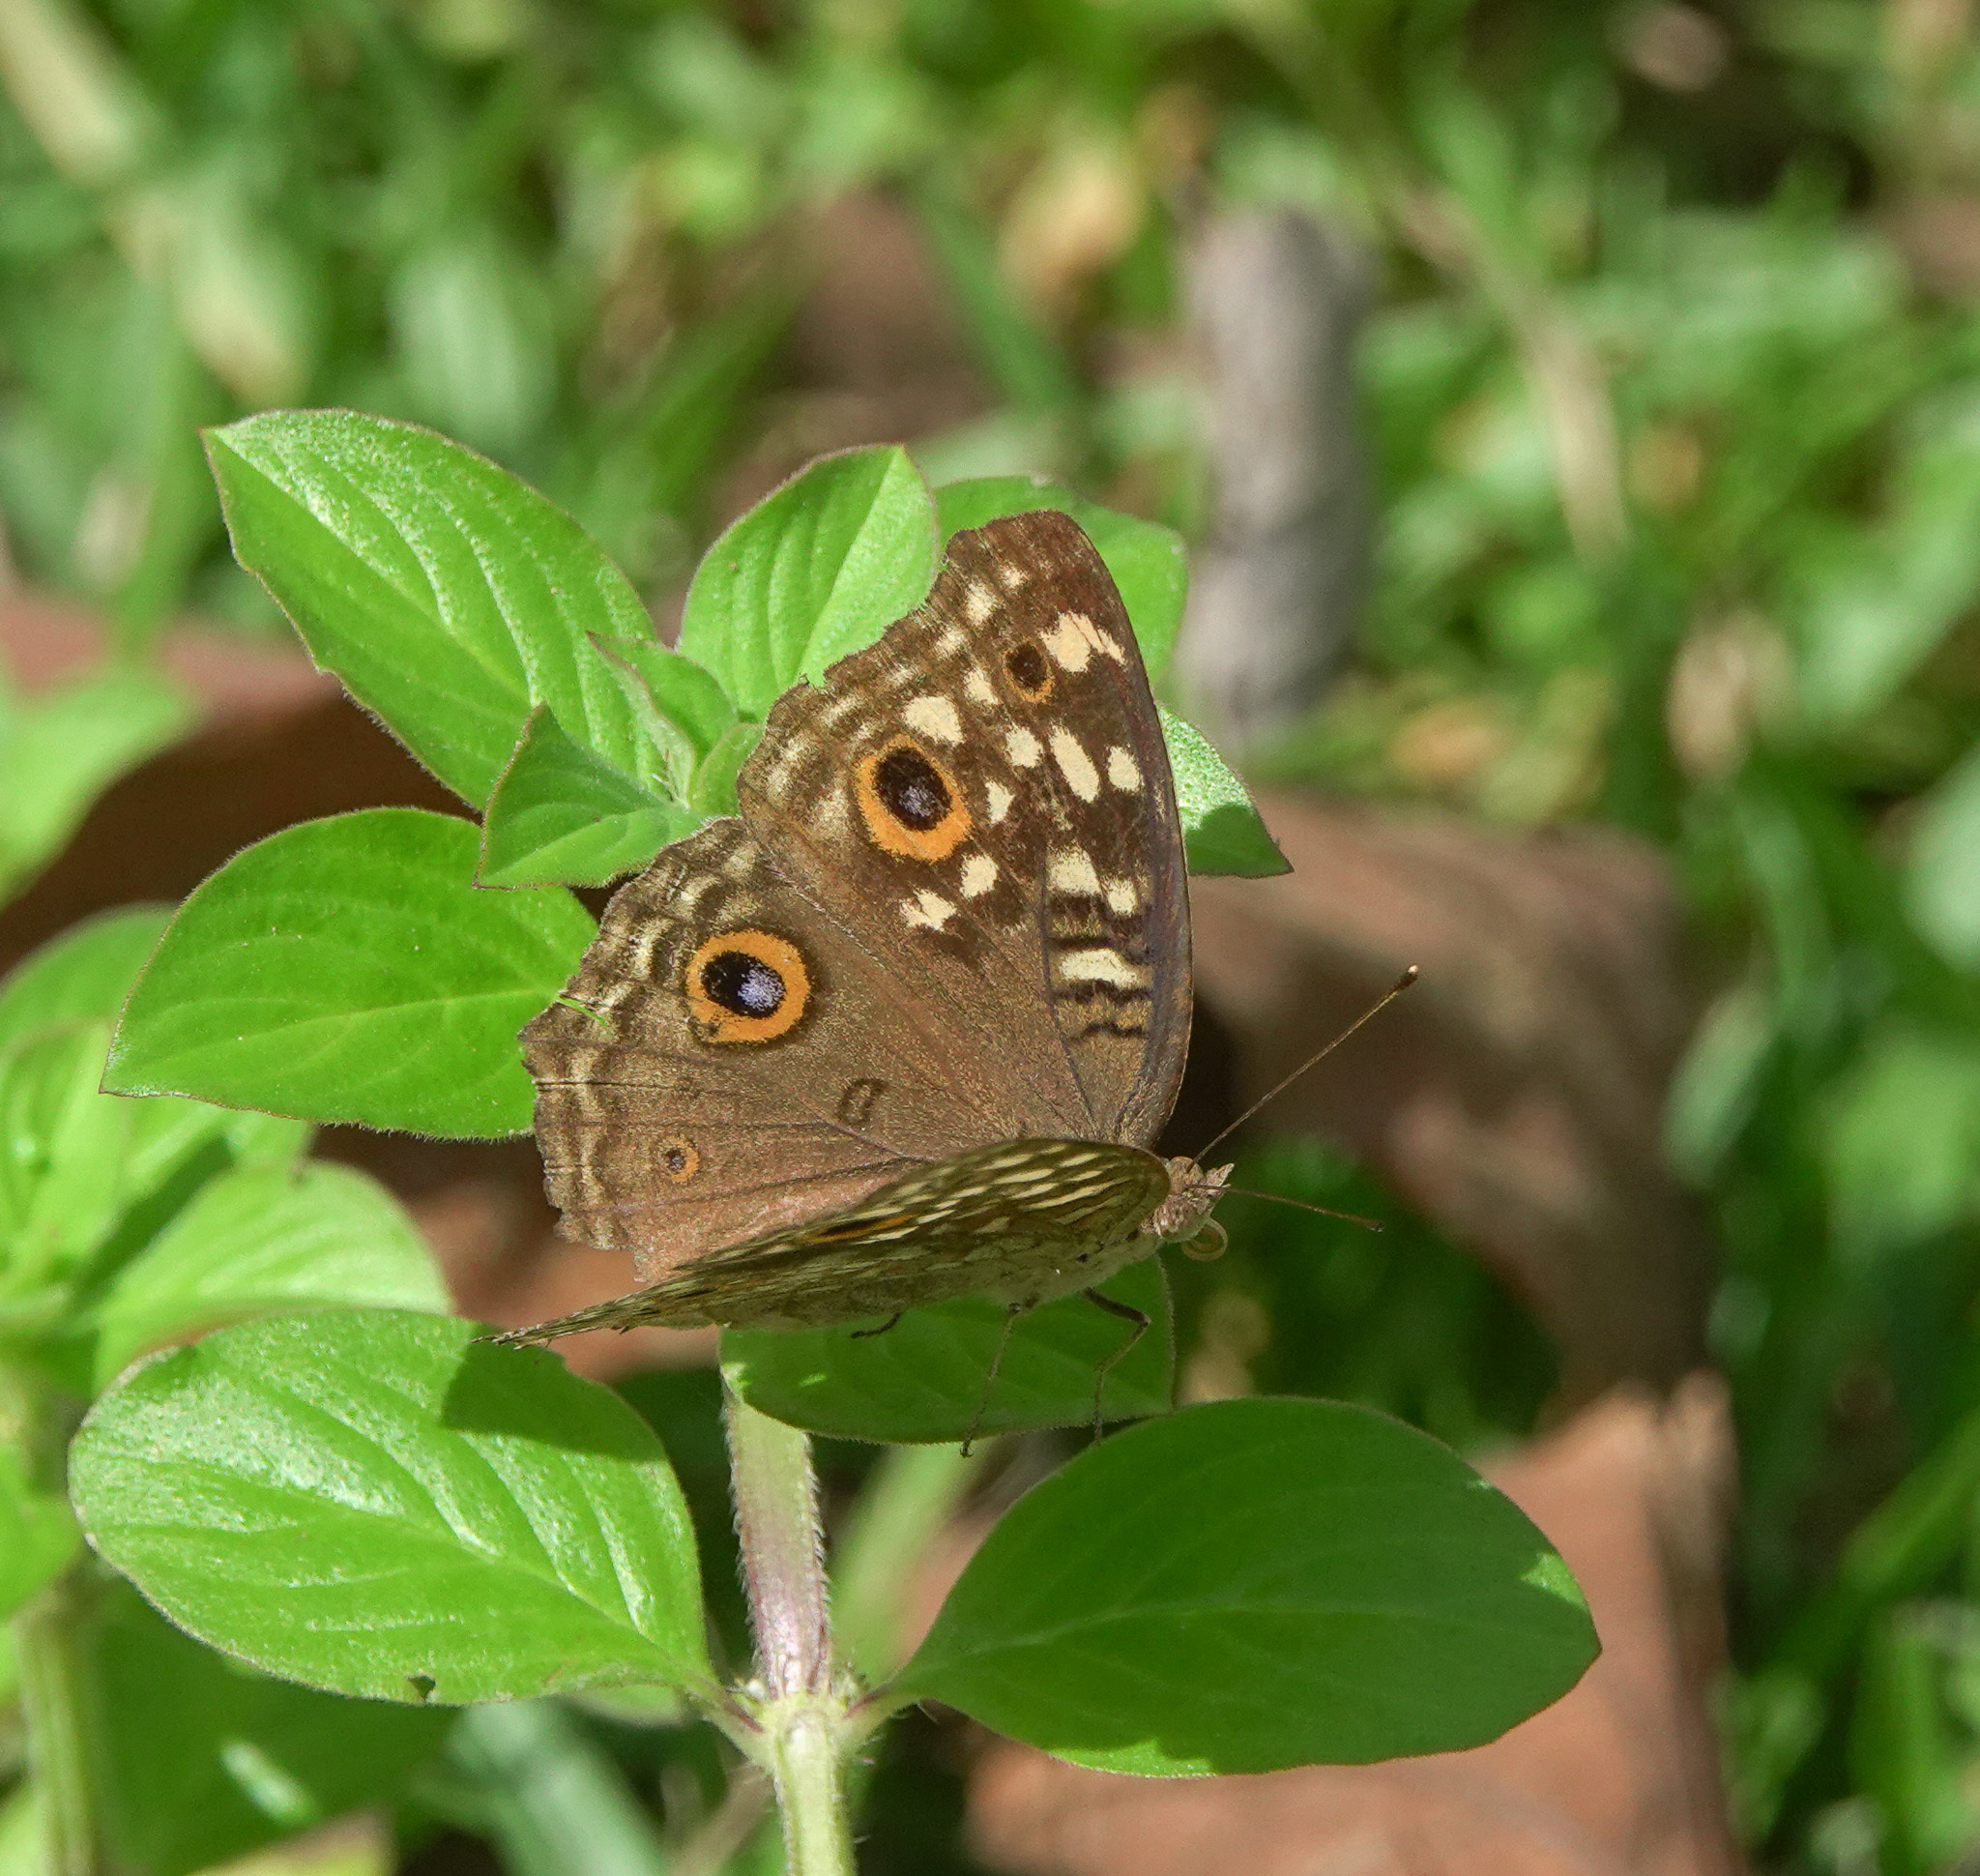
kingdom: Animalia
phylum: Arthropoda
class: Insecta
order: Lepidoptera
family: Nymphalidae
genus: Junonia
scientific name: Junonia lemonias
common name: Lemon pansy
